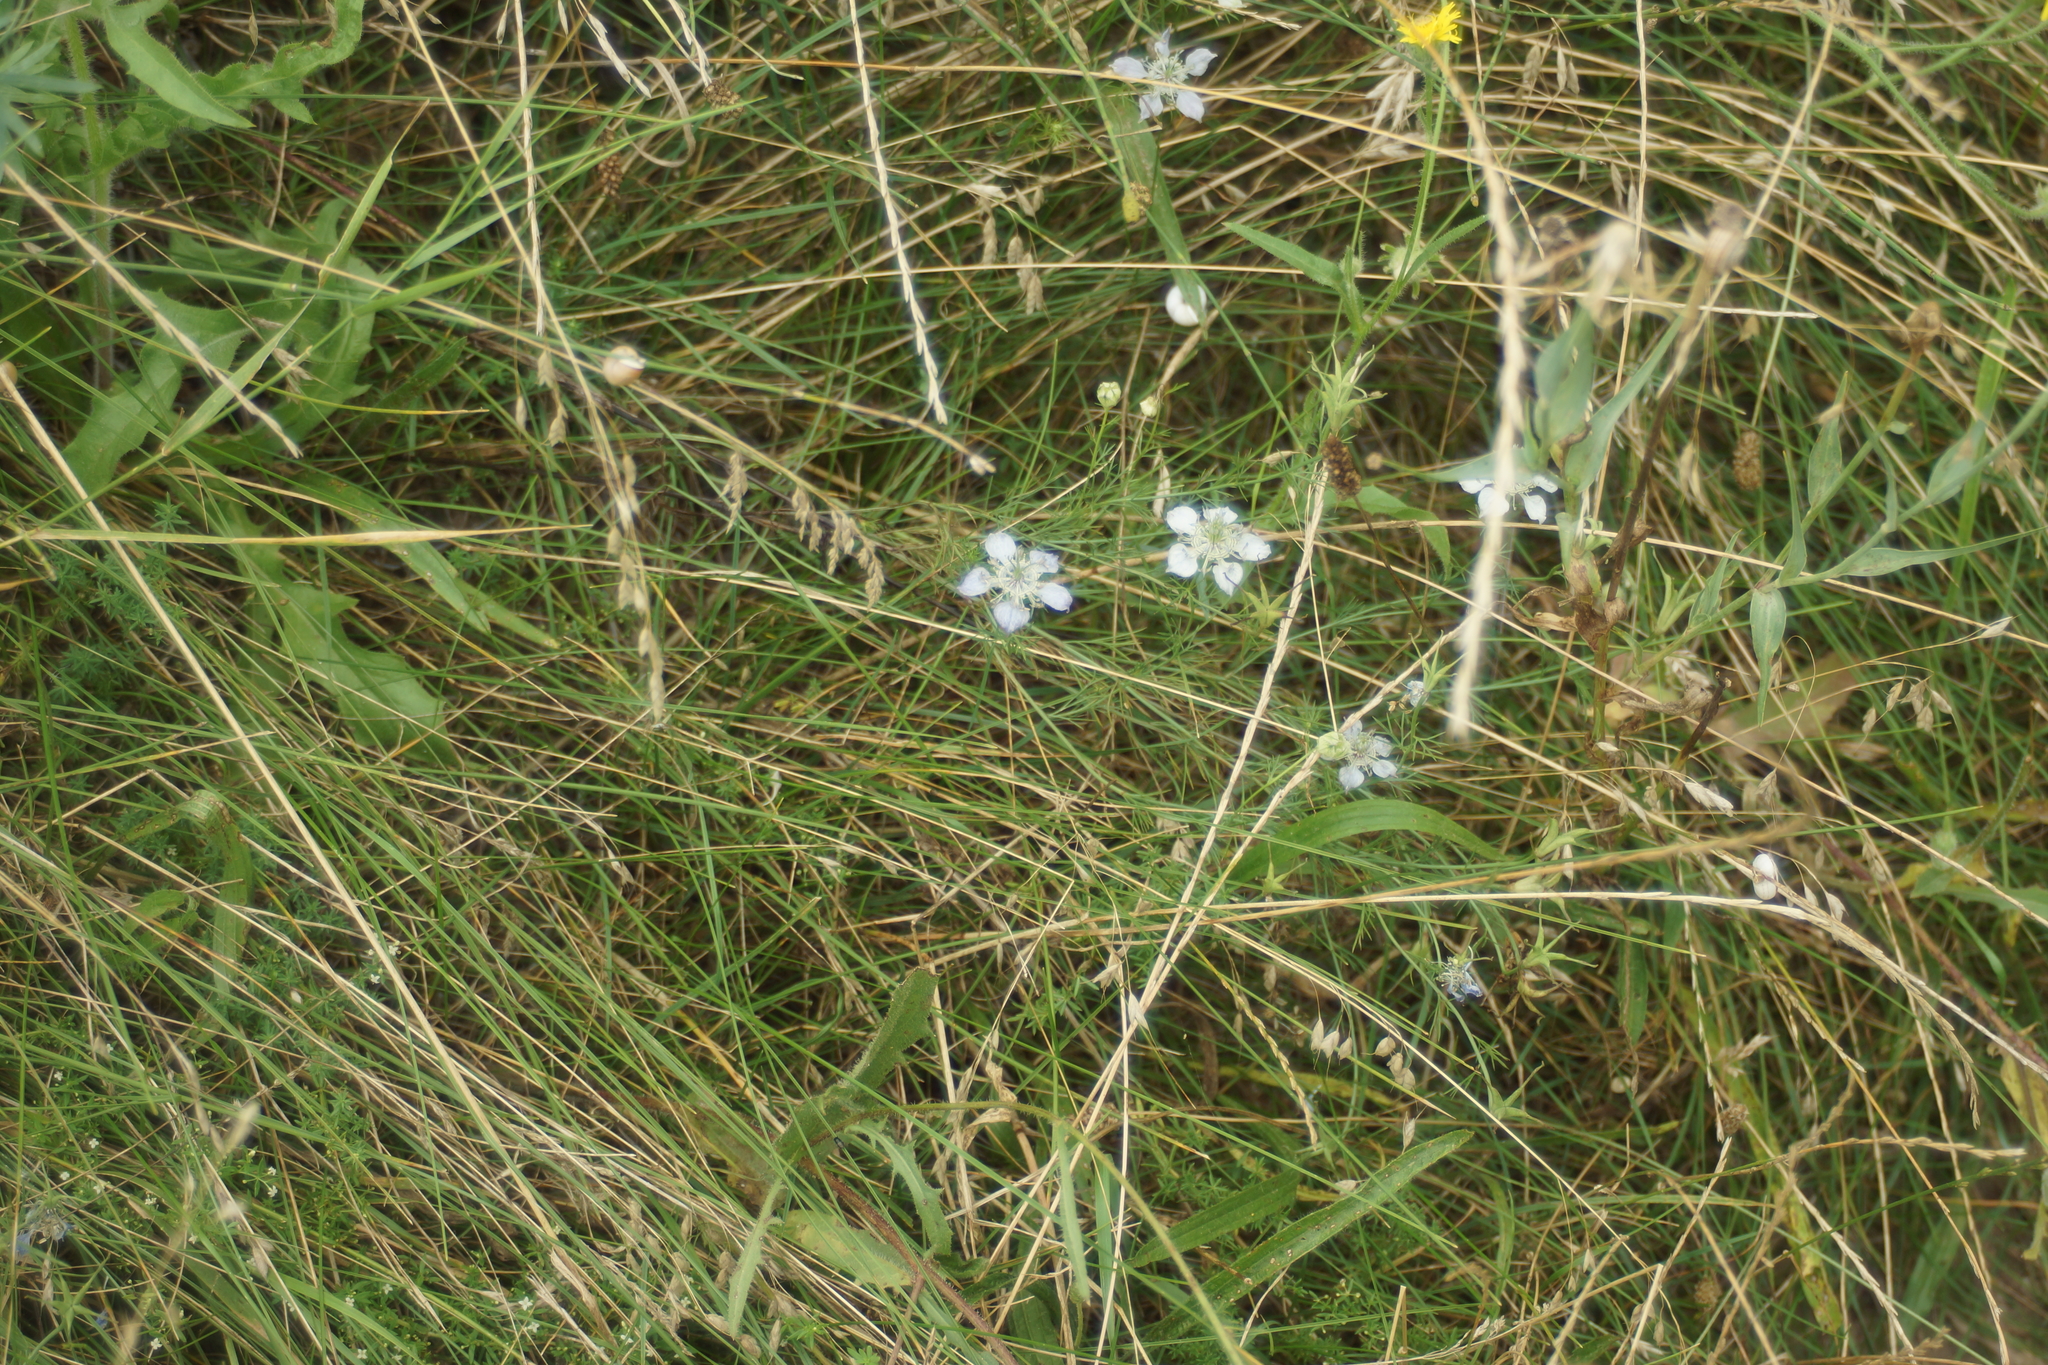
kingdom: Plantae
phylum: Tracheophyta
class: Magnoliopsida
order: Ranunculales
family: Ranunculaceae
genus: Nigella
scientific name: Nigella arvensis
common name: Wild fennel-flower
